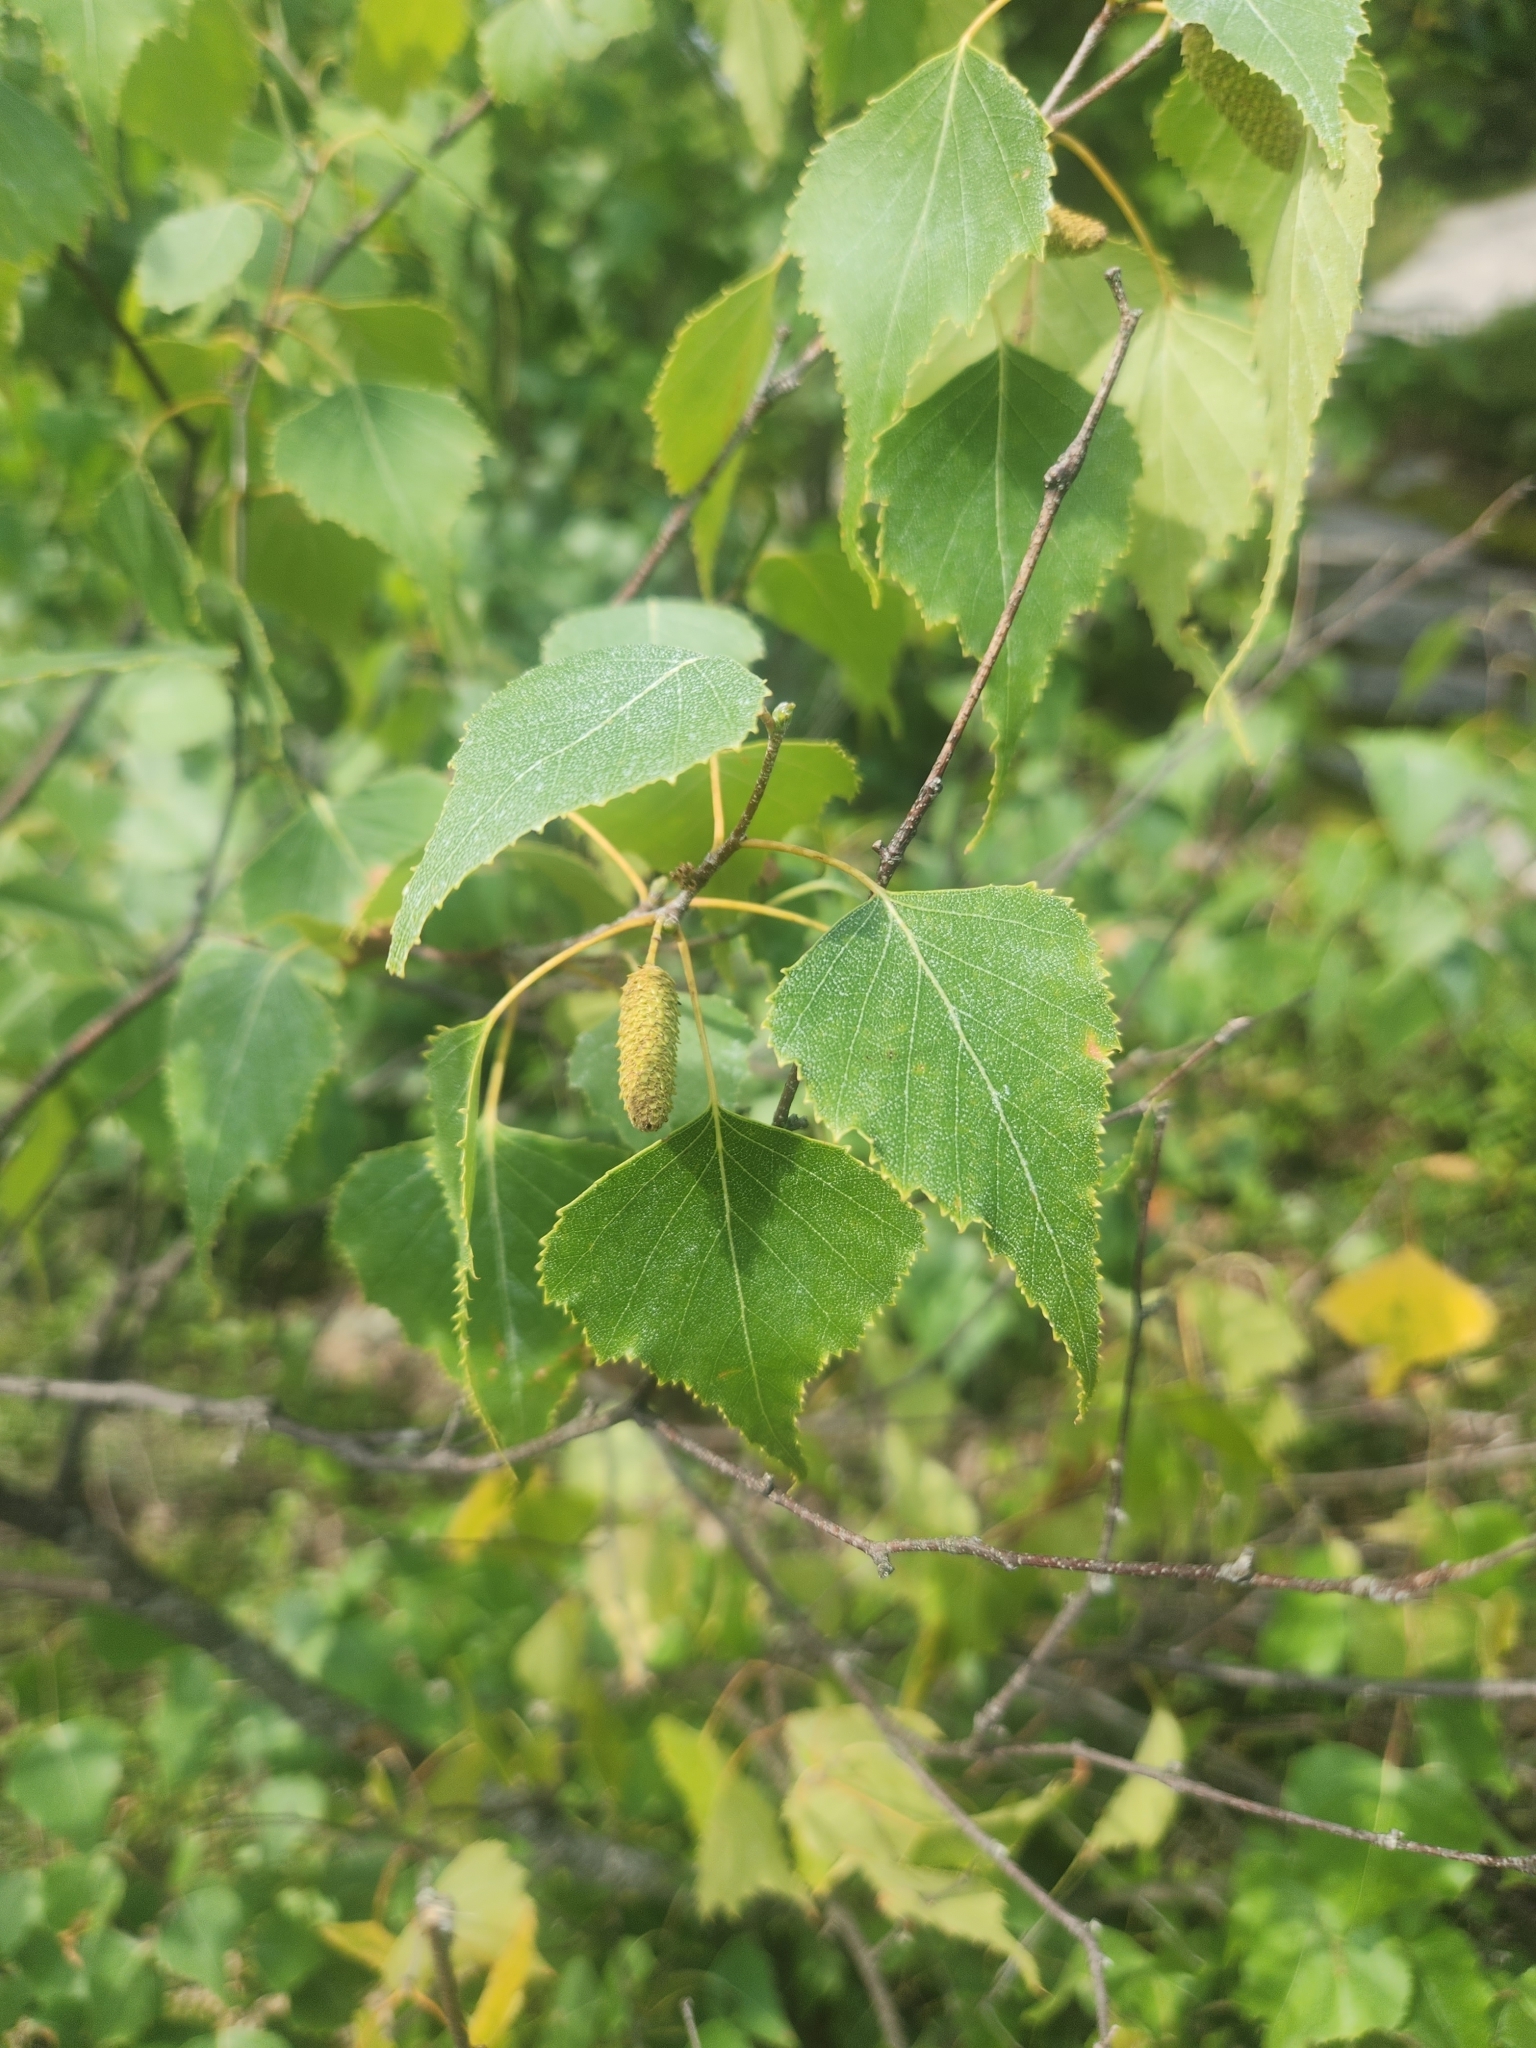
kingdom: Plantae
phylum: Tracheophyta
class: Magnoliopsida
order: Fagales
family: Betulaceae
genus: Betula
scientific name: Betula populifolia
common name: Fire birch
